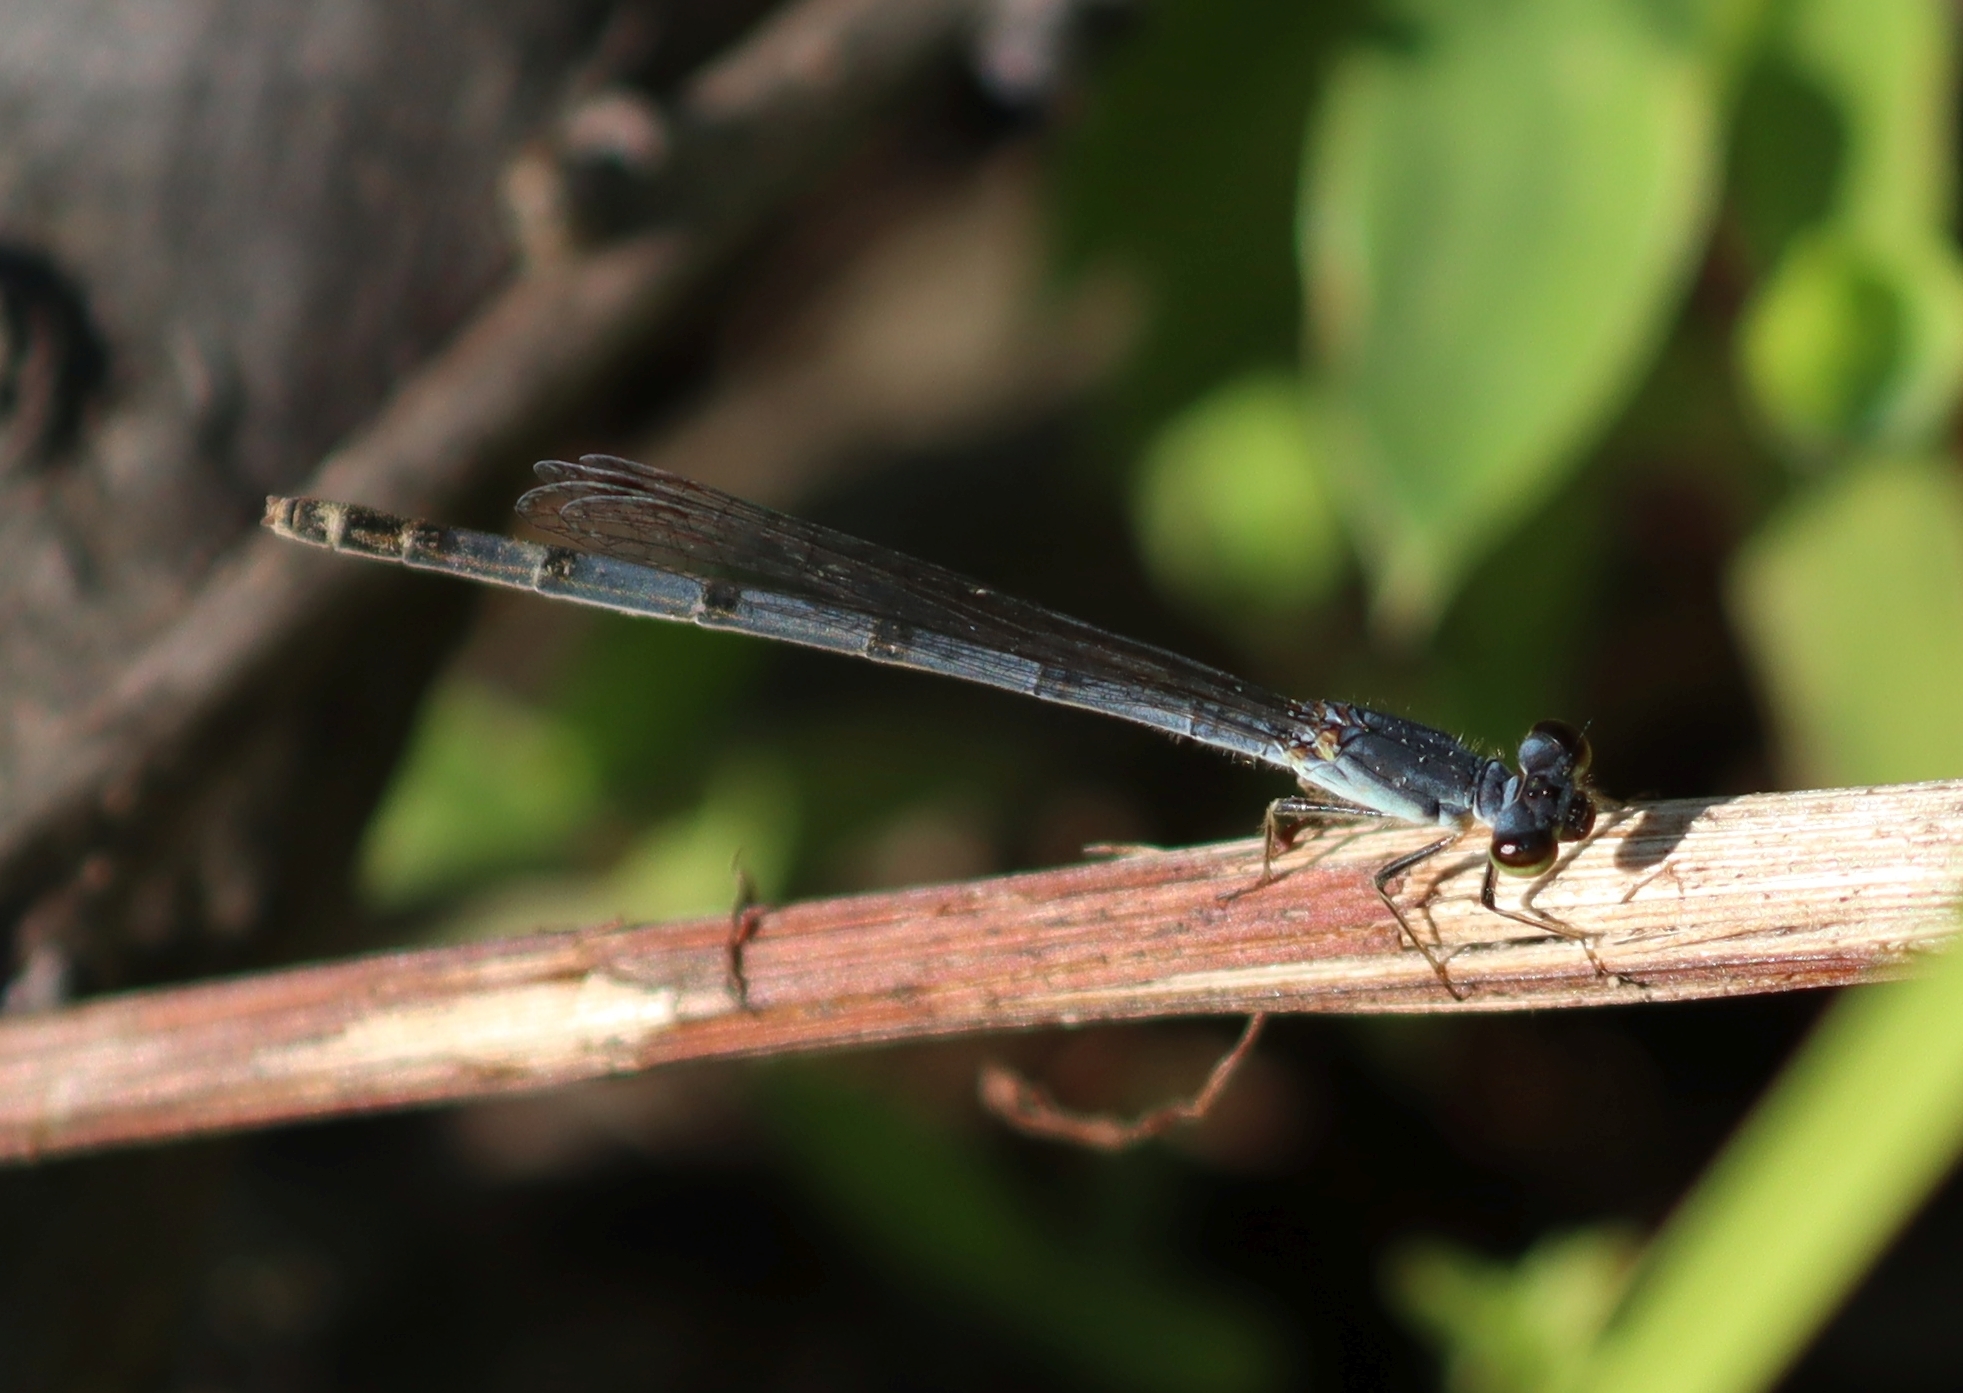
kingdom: Animalia
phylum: Arthropoda
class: Insecta
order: Odonata
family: Coenagrionidae
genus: Ischnura
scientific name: Ischnura posita
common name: Fragile forktail
